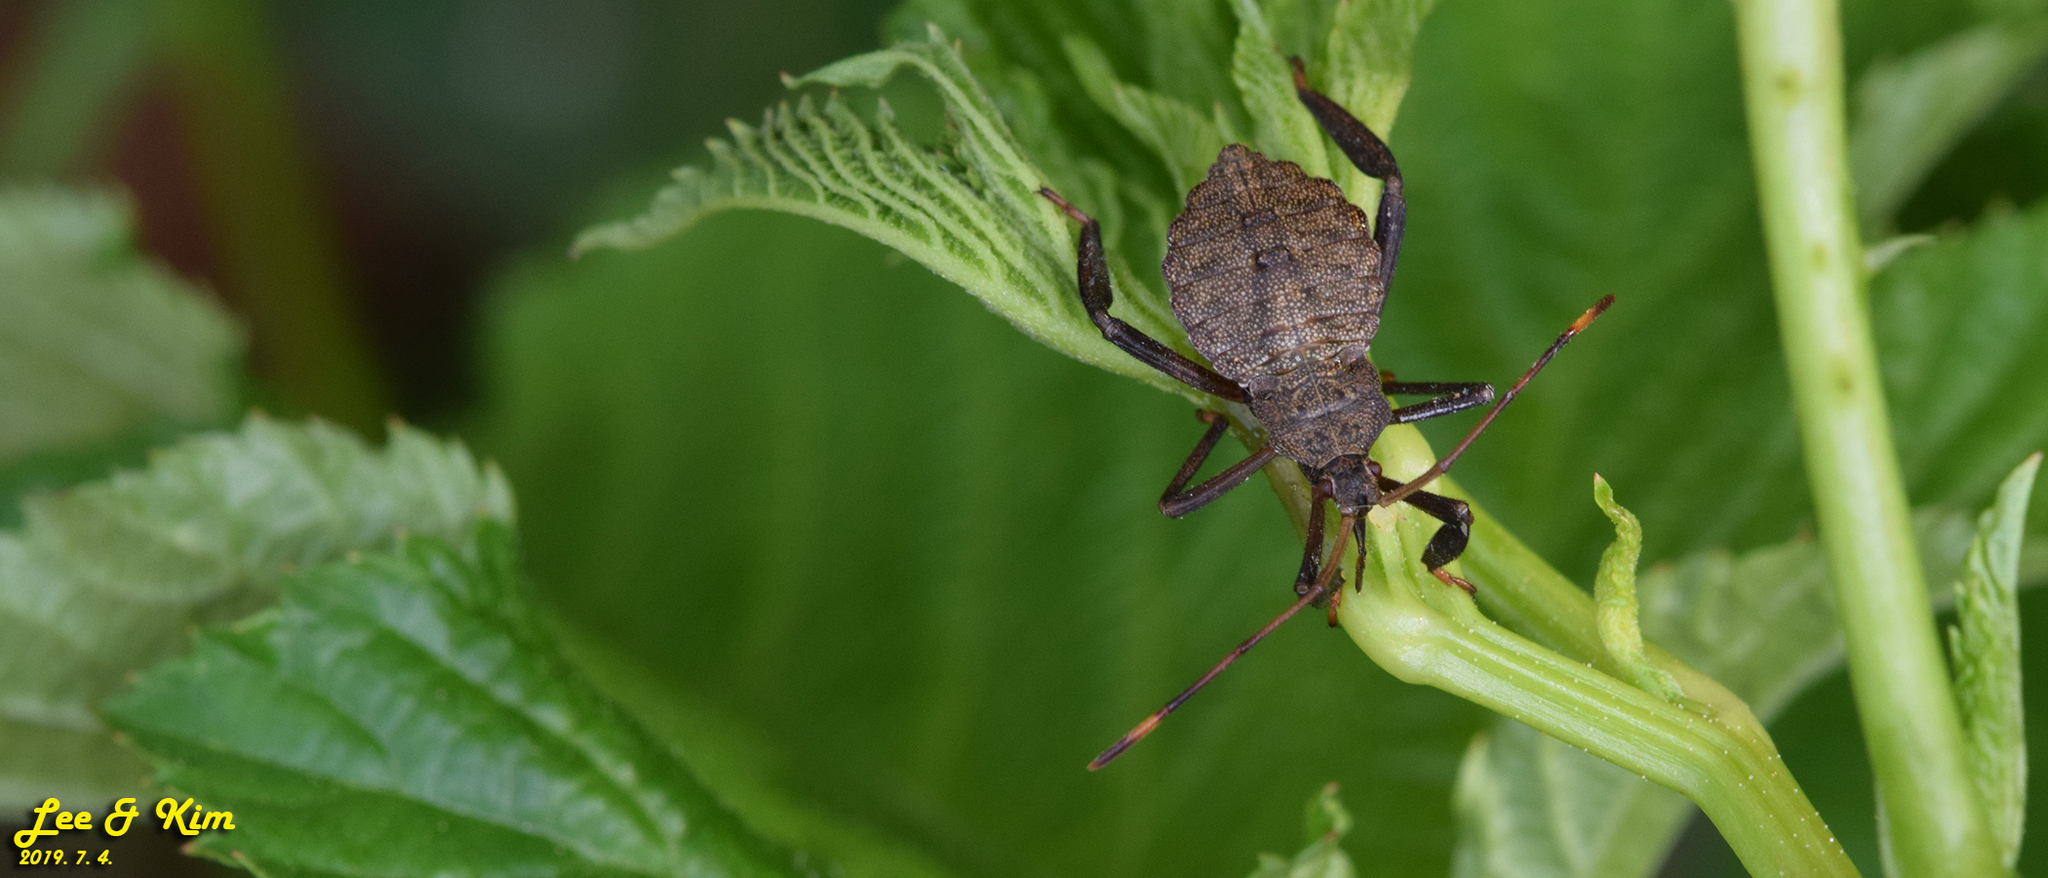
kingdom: Animalia
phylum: Arthropoda
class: Insecta
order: Hemiptera
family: Coreidae
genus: Molipteryx
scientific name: Molipteryx fuliginosa
